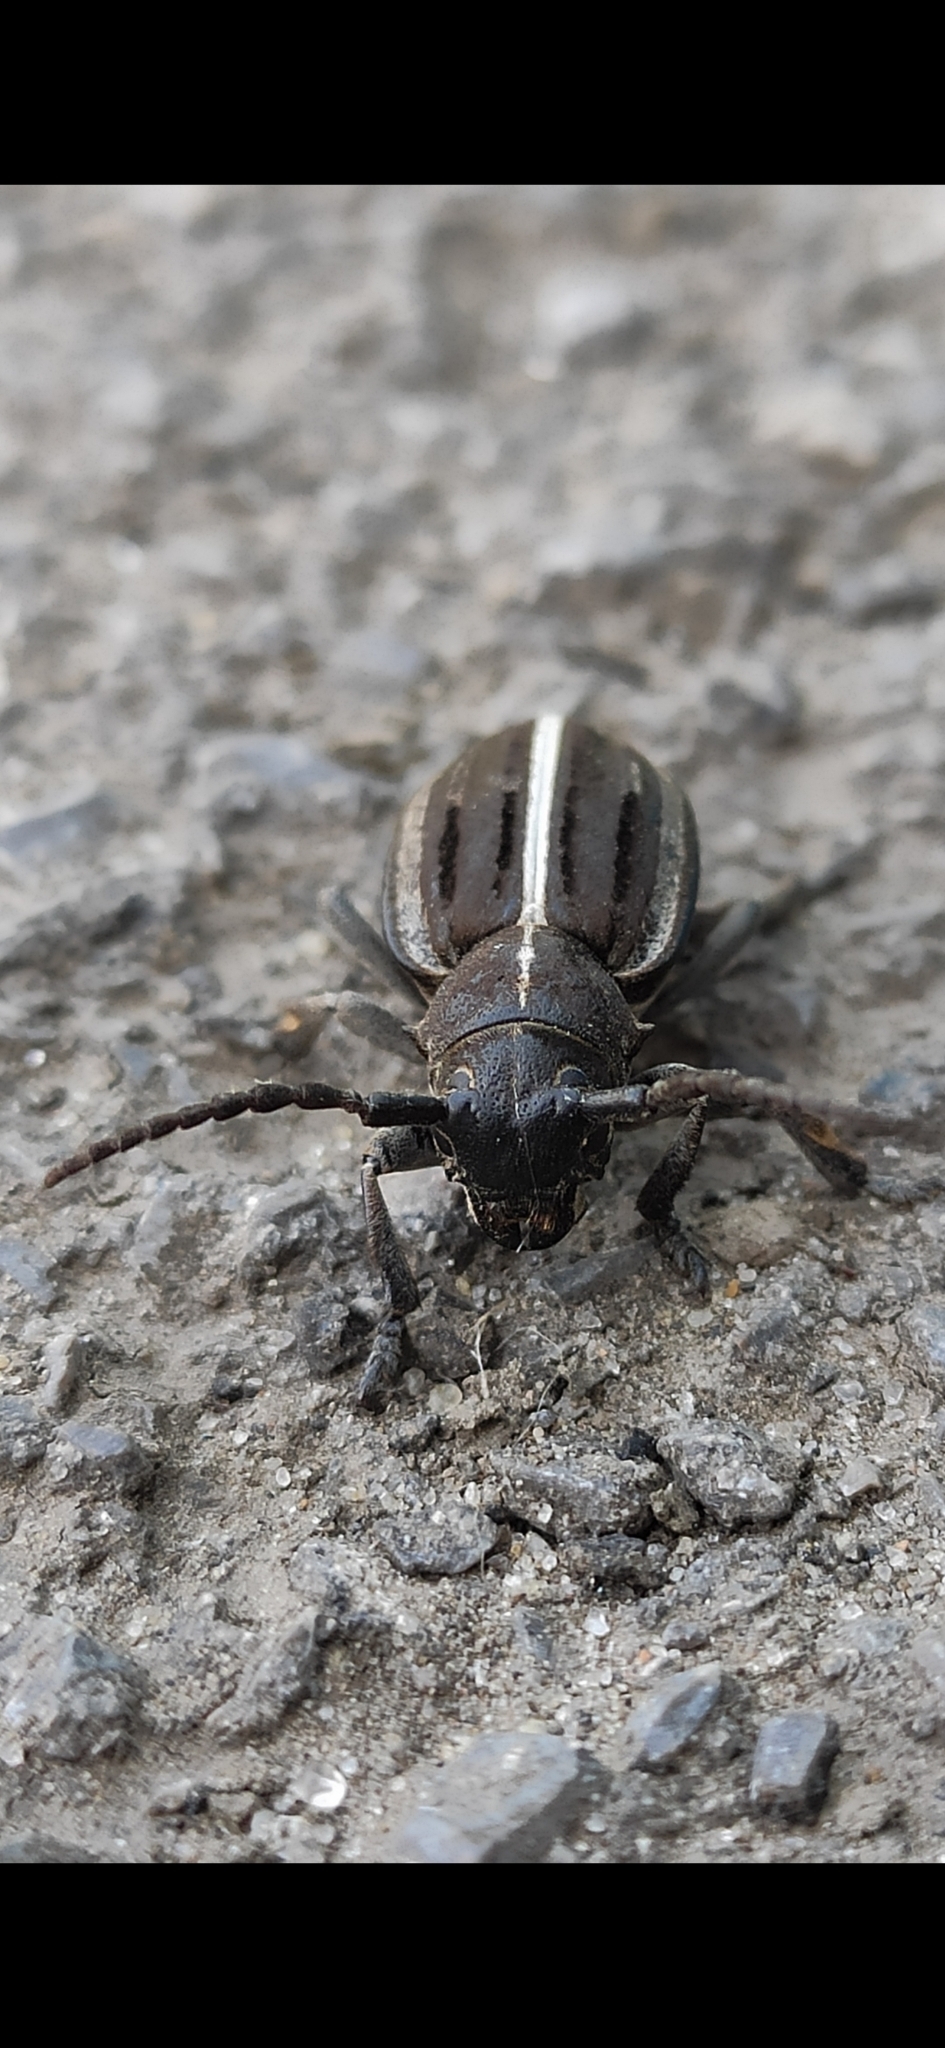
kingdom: Animalia
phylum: Arthropoda
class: Insecta
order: Coleoptera
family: Cerambycidae
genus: Dorcadion
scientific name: Dorcadion holosericeum
